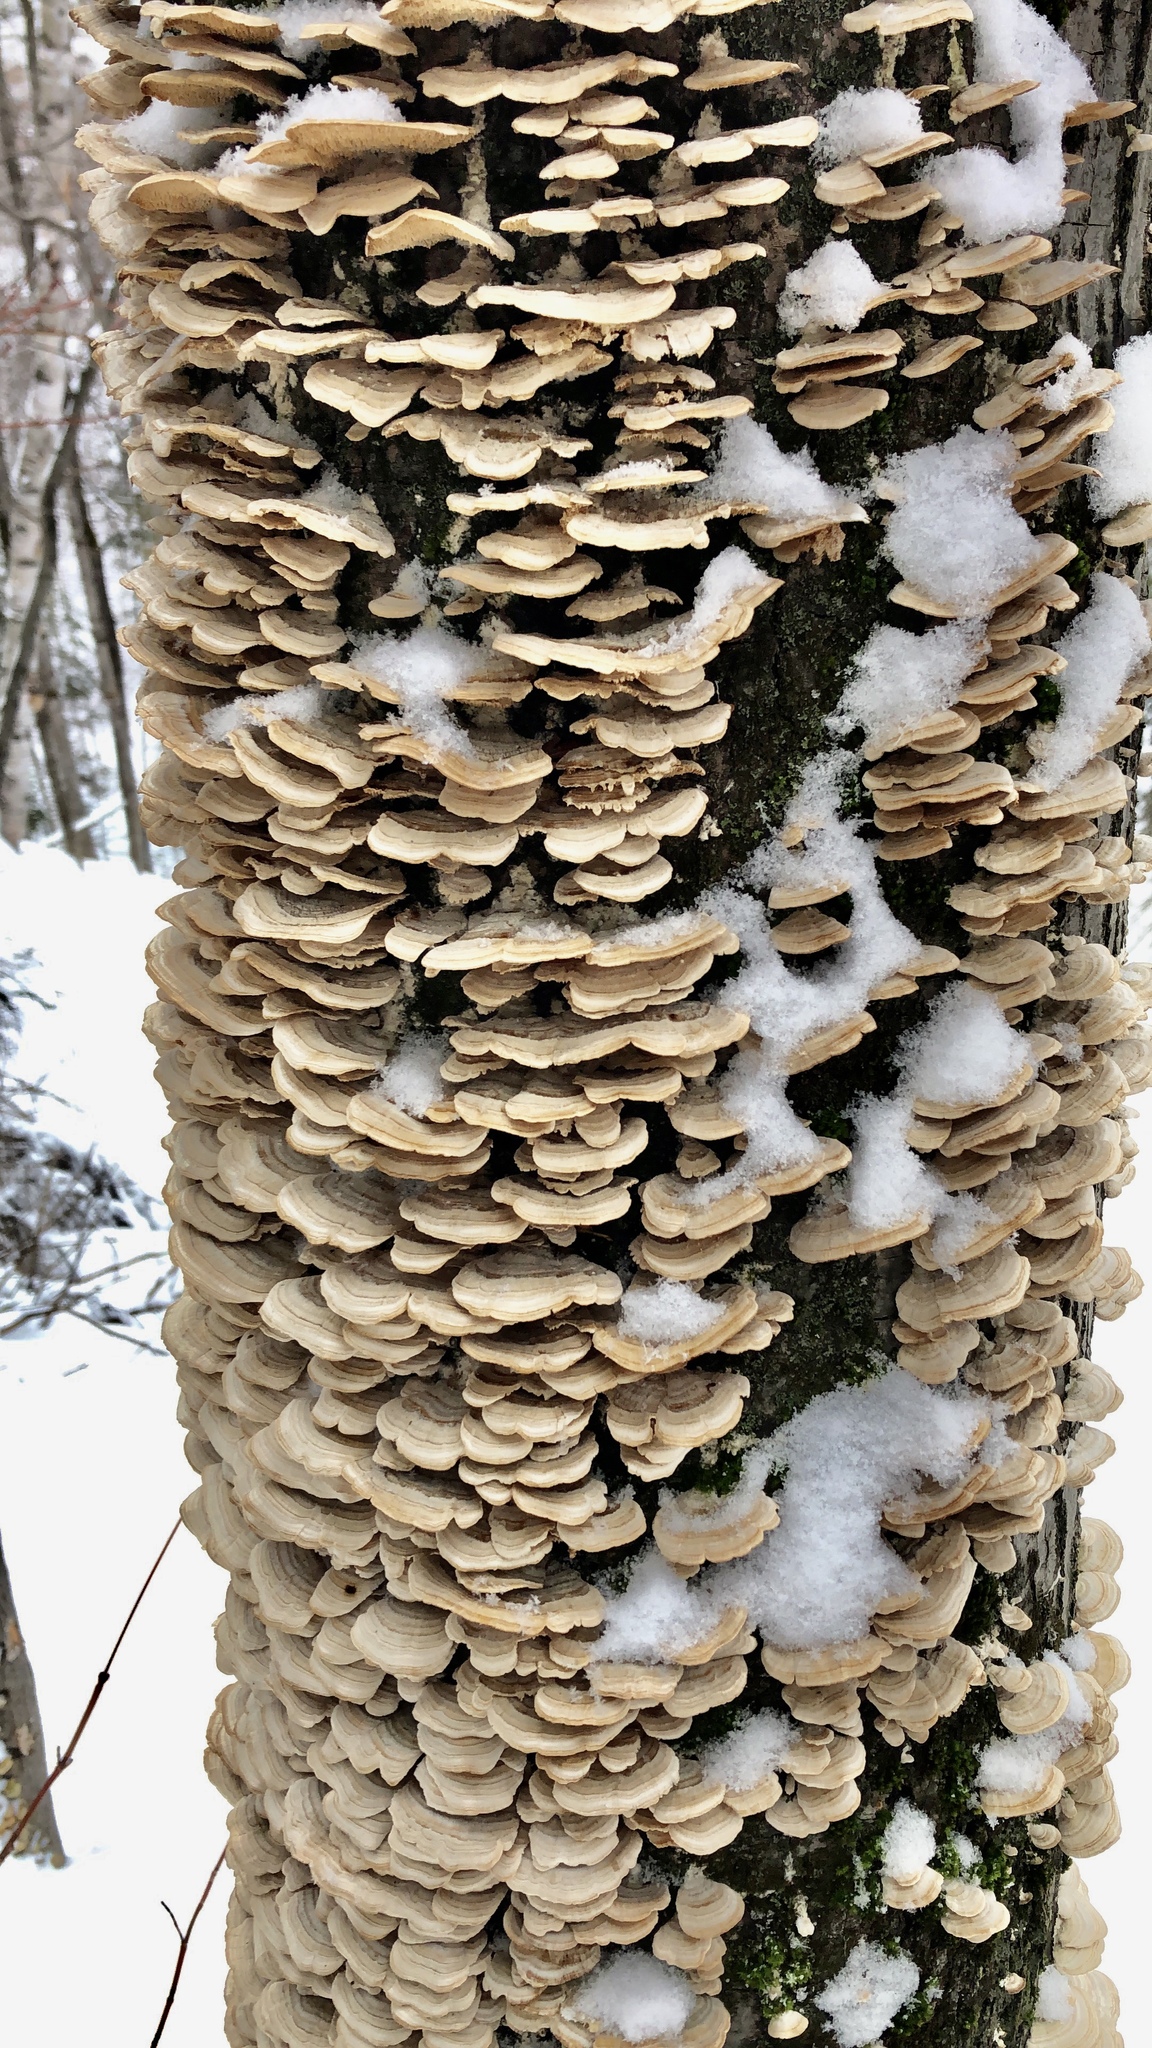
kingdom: Fungi
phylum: Basidiomycota
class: Agaricomycetes
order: Hymenochaetales
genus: Trichaptum
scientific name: Trichaptum biforme
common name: Violet-toothed polypore
